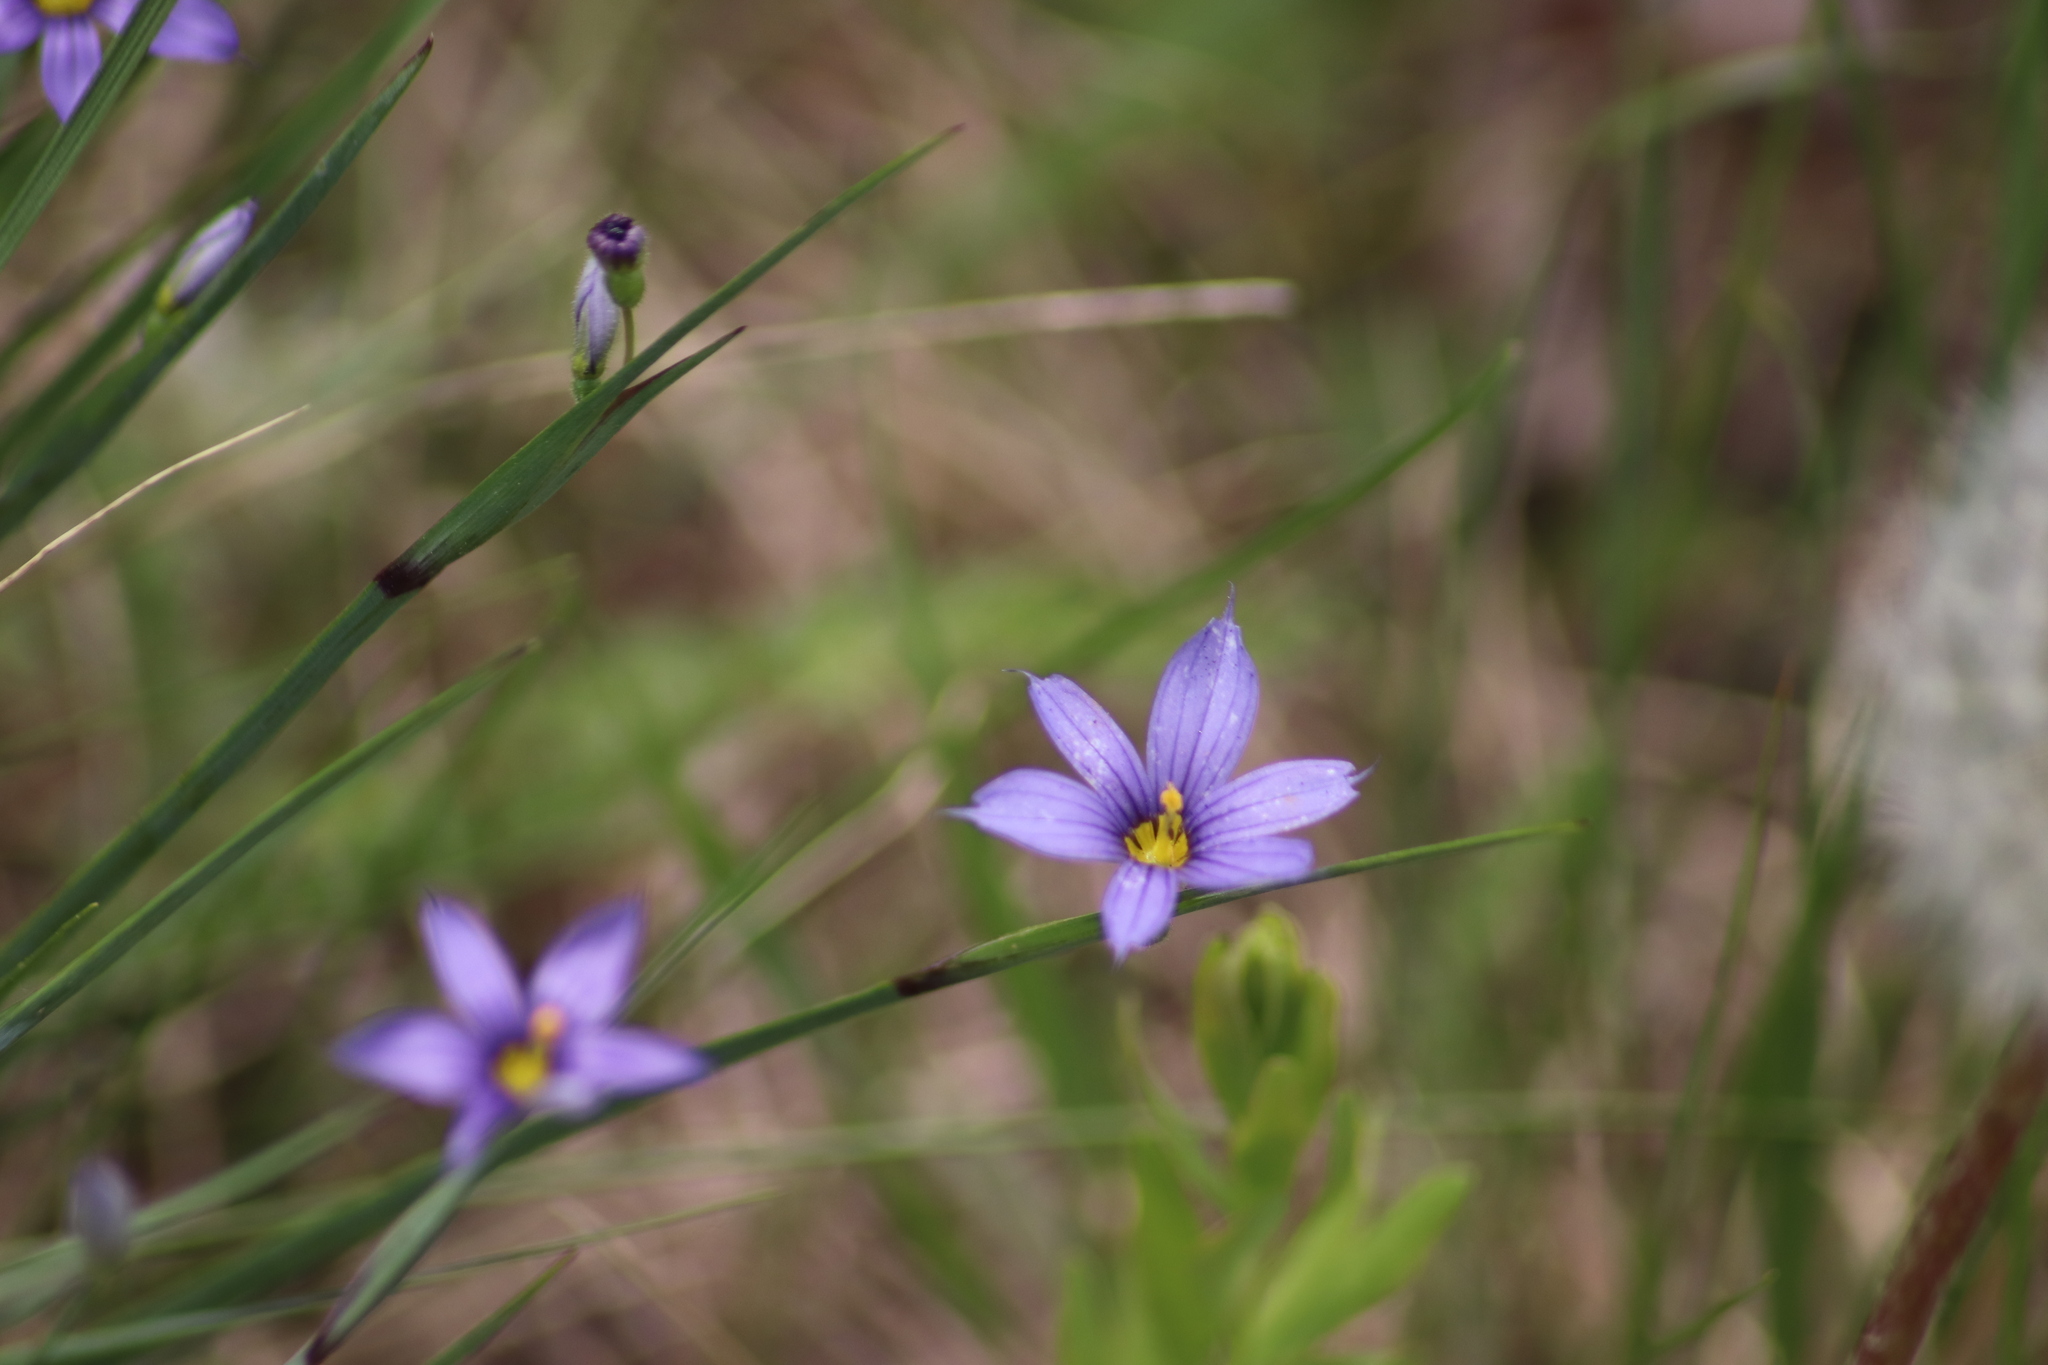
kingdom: Plantae
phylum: Tracheophyta
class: Liliopsida
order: Asparagales
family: Iridaceae
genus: Sisyrinchium
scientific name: Sisyrinchium montanum
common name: American blue-eyed-grass
